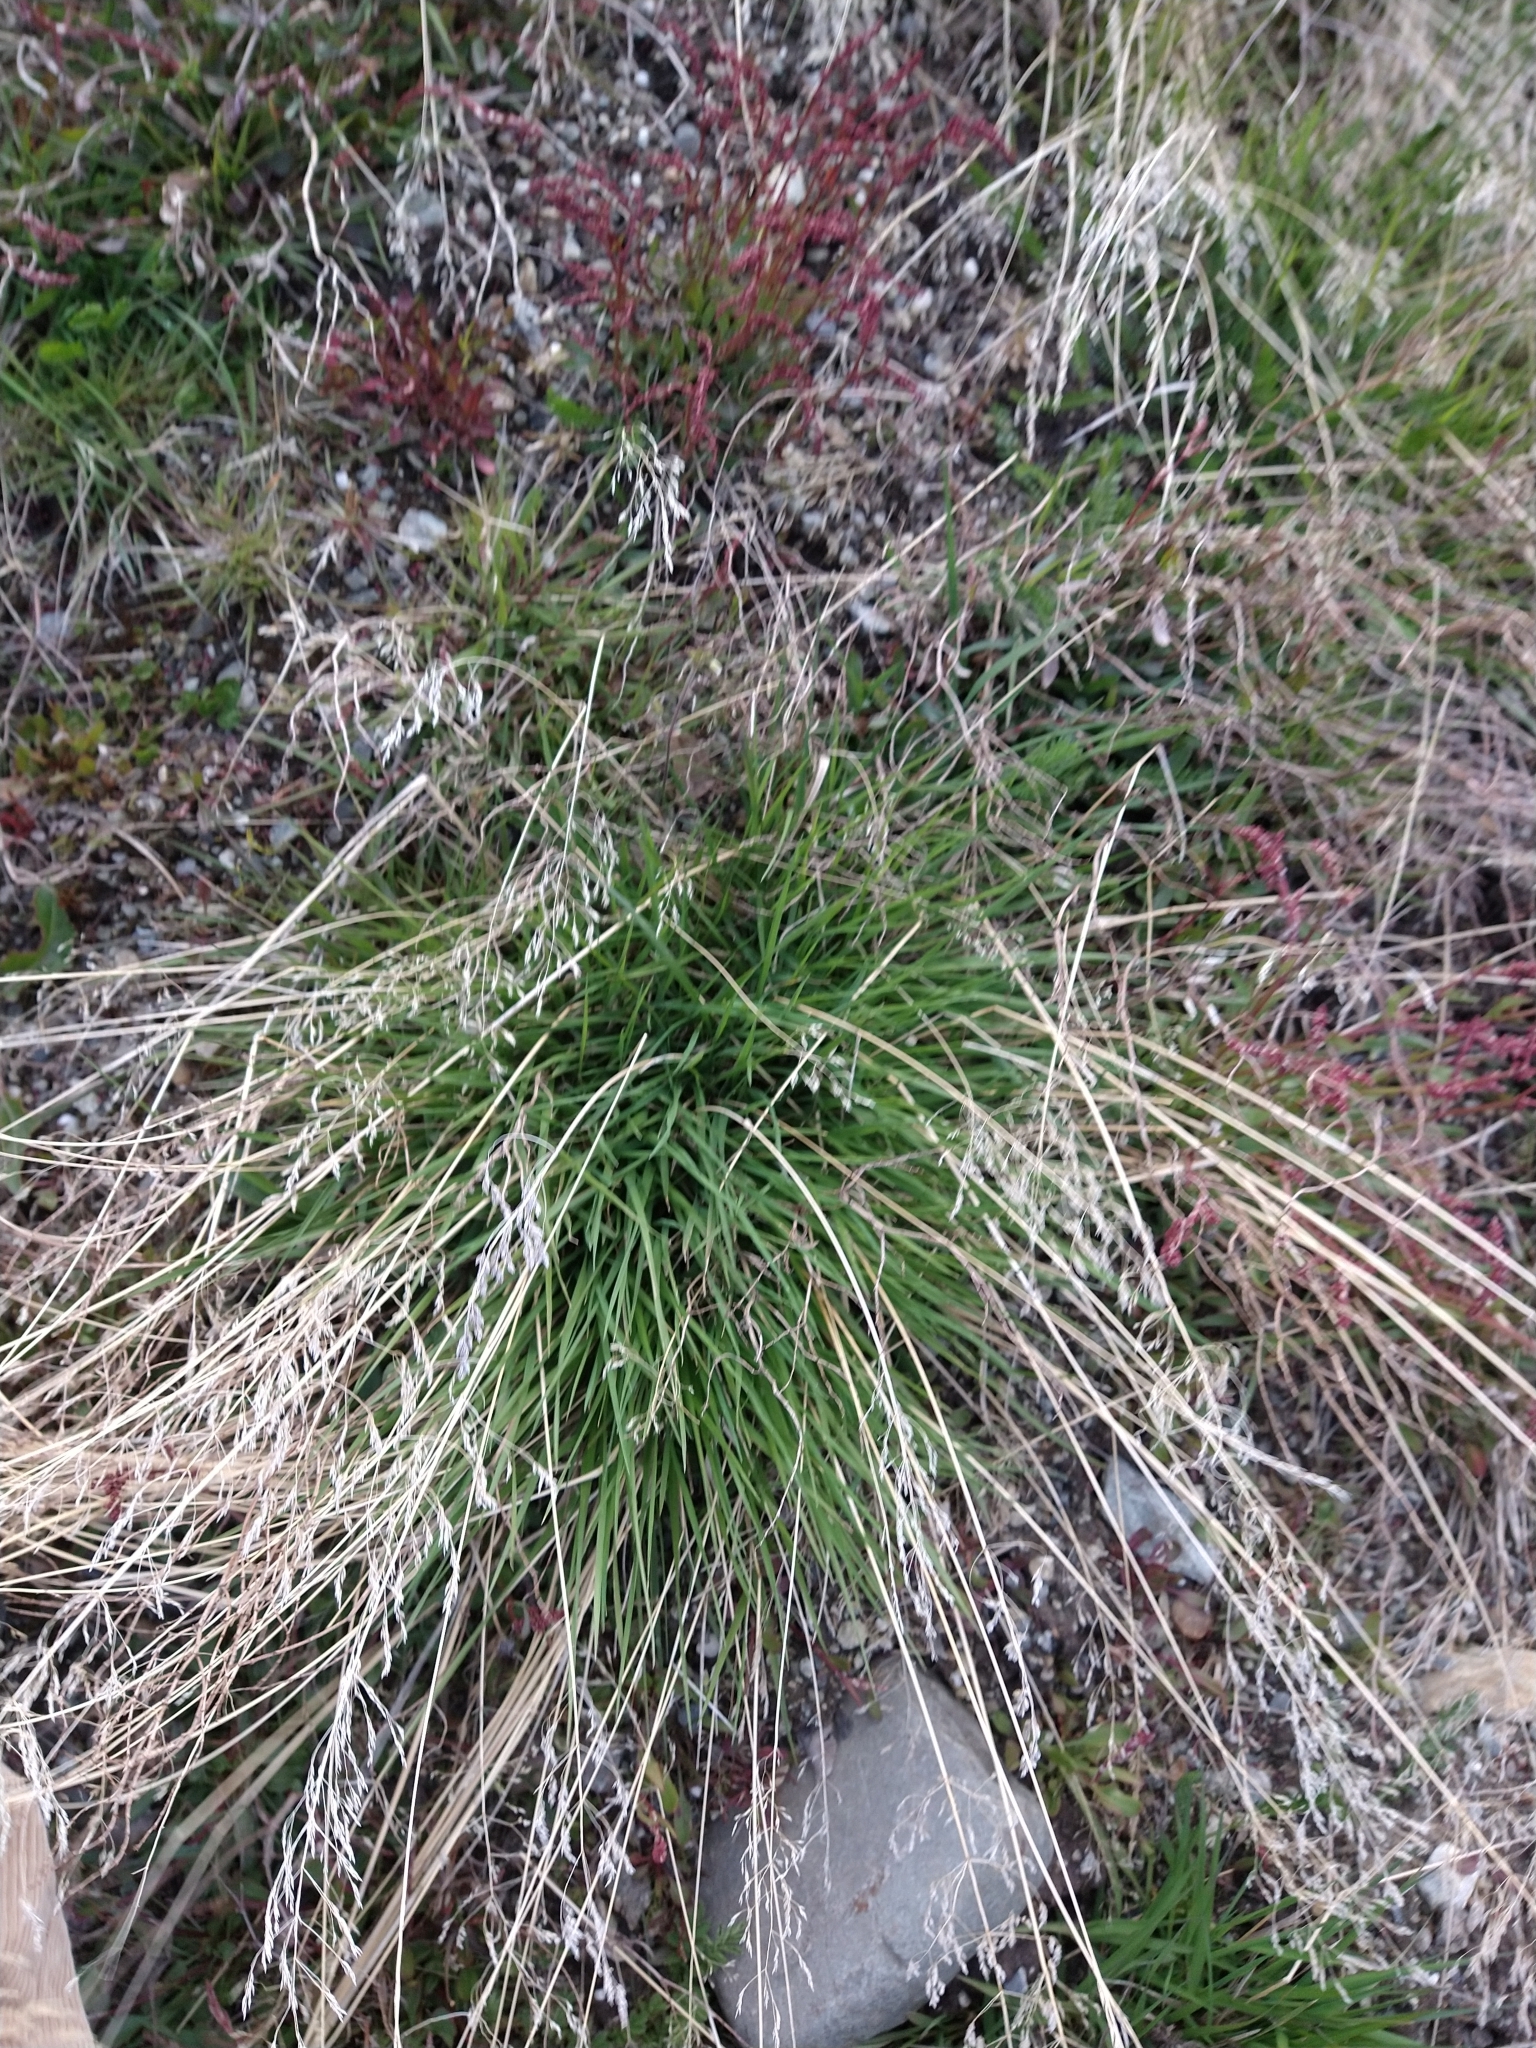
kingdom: Plantae
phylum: Tracheophyta
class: Liliopsida
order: Poales
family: Poaceae
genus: Poa
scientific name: Poa annua
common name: Annual bluegrass
